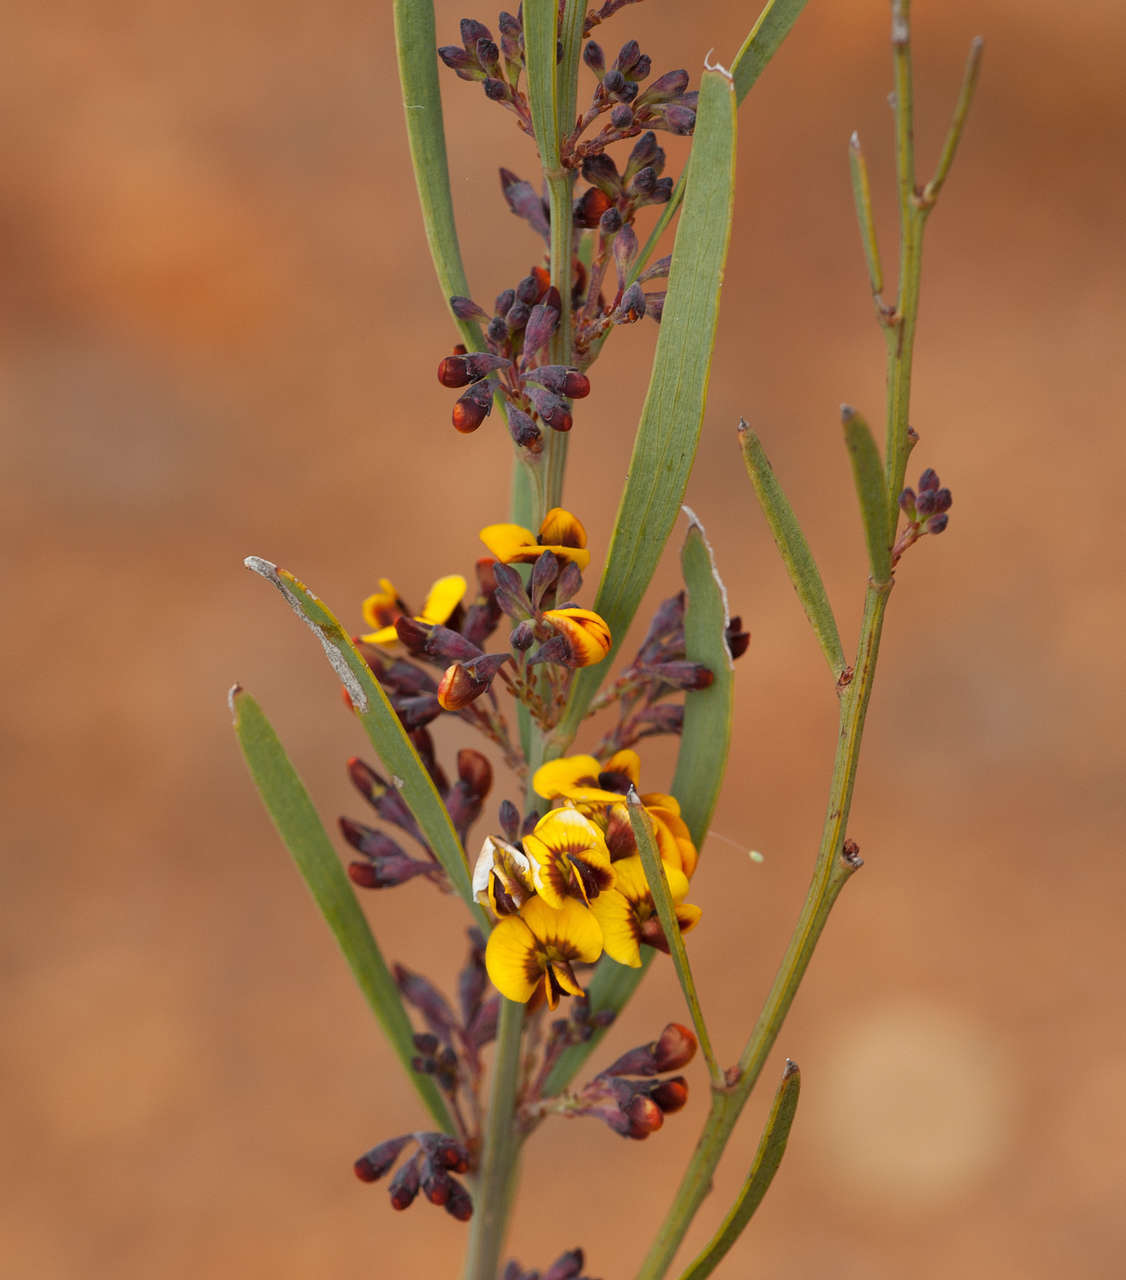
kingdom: Plantae
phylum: Tracheophyta
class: Magnoliopsida
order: Fabales
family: Fabaceae
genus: Daviesia
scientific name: Daviesia leptophylla
